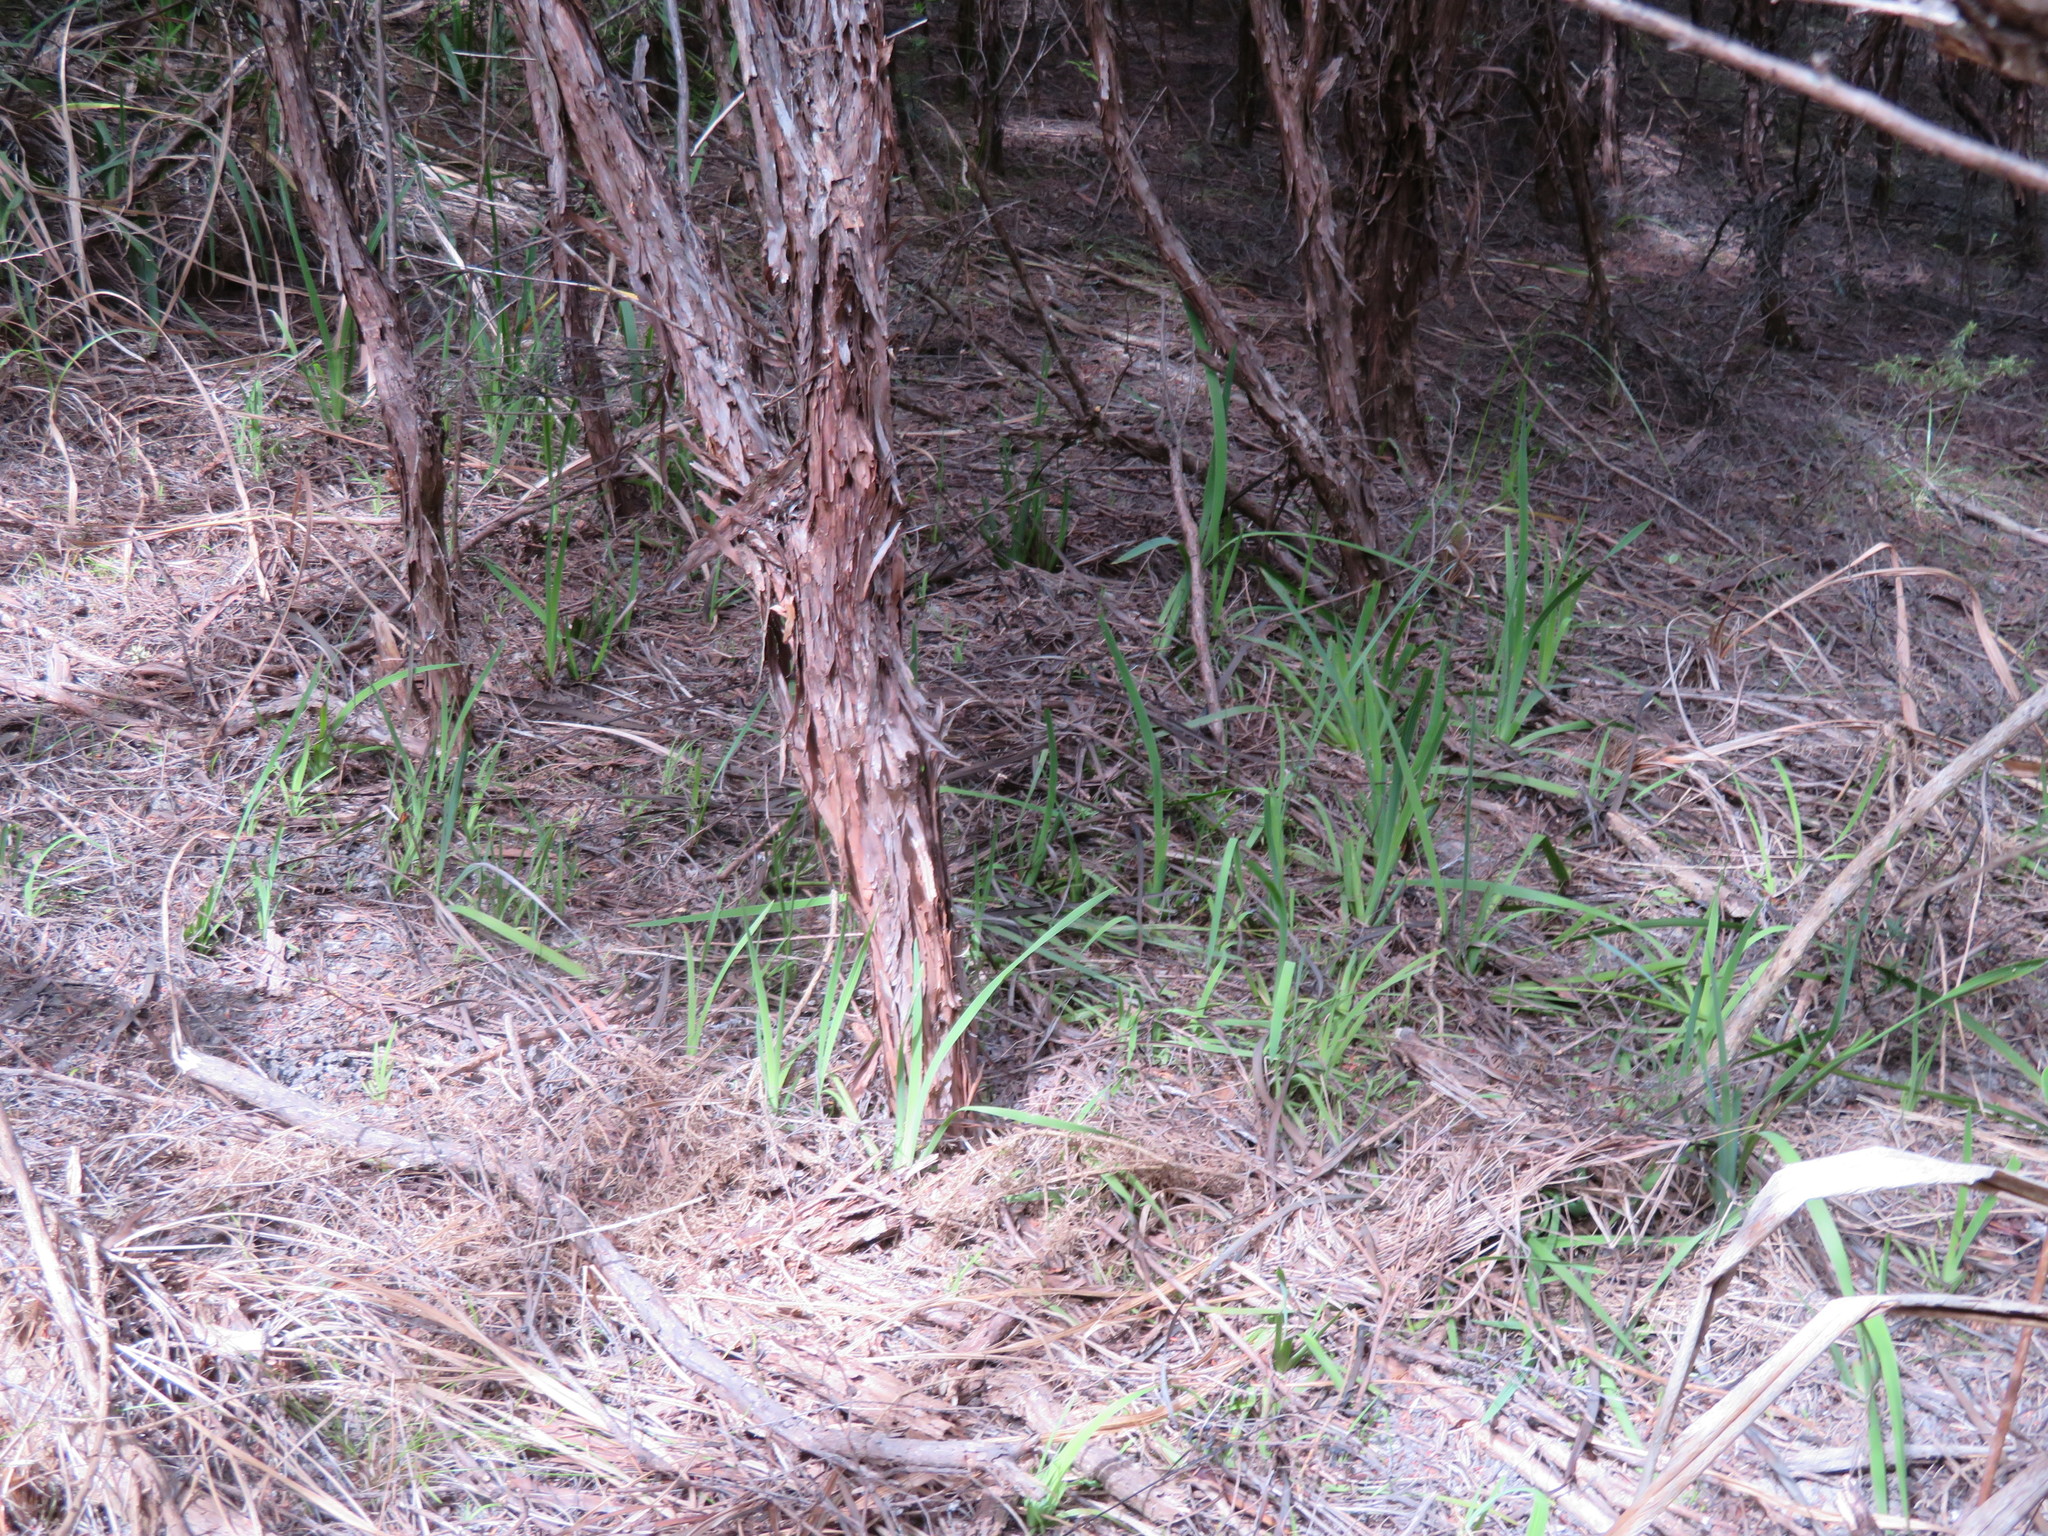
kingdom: Plantae
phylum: Tracheophyta
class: Liliopsida
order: Asparagales
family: Iridaceae
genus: Aristea
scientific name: Aristea ecklonii
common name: Blue corn-lily
